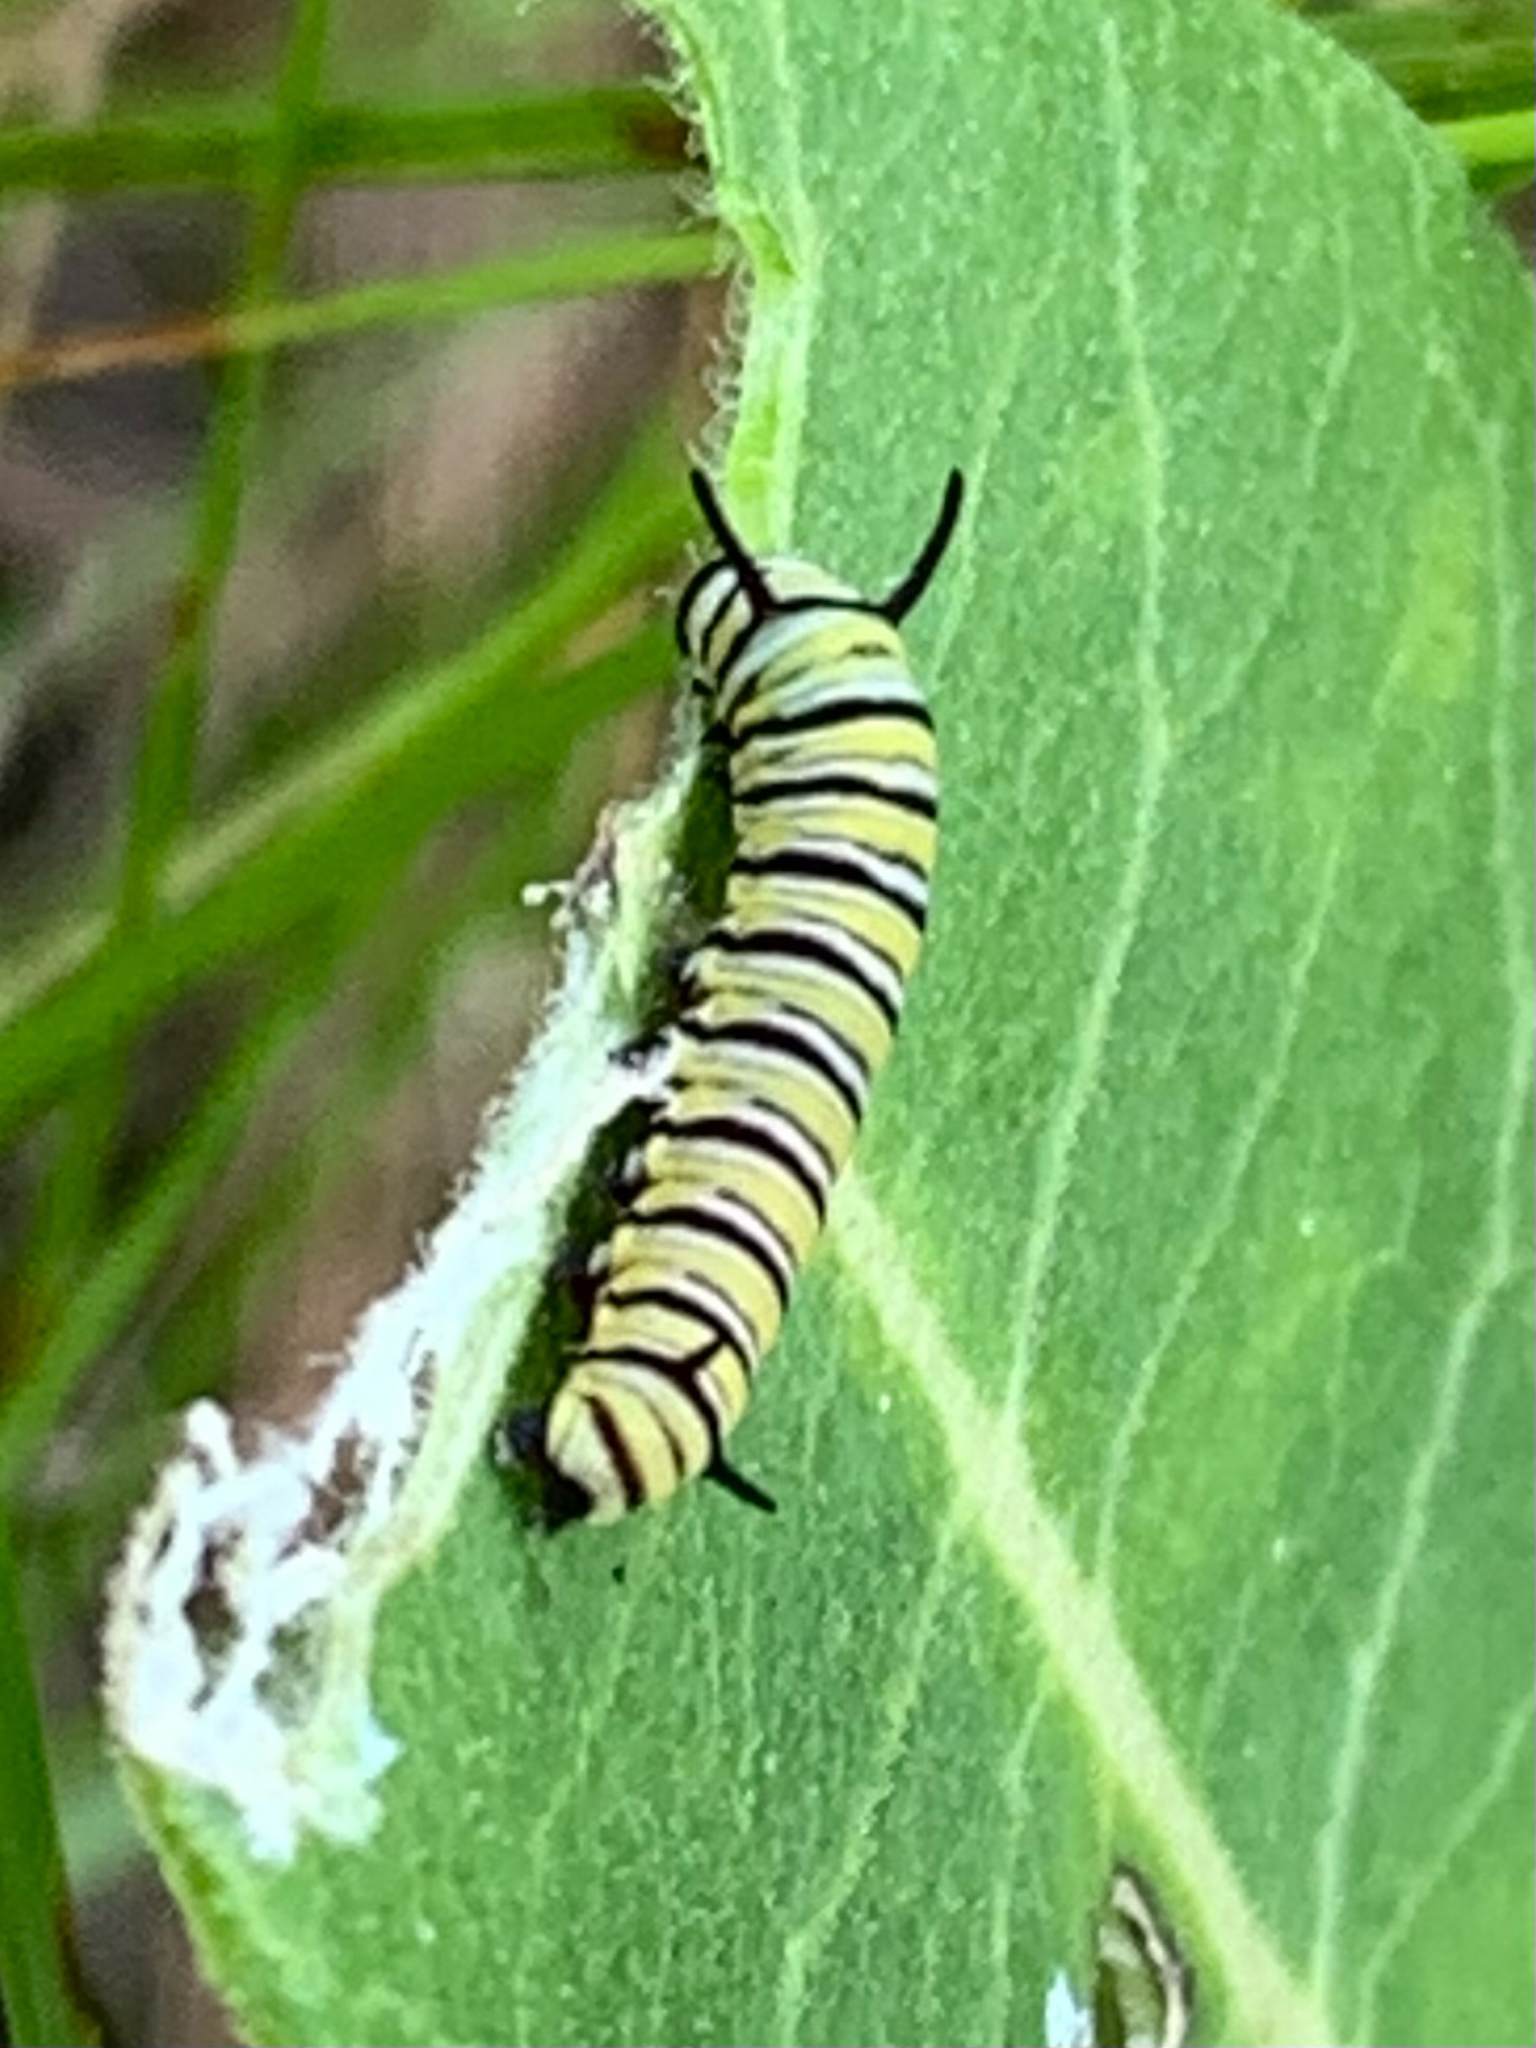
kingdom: Animalia
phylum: Arthropoda
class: Insecta
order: Lepidoptera
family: Nymphalidae
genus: Danaus
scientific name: Danaus plexippus
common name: Monarch
